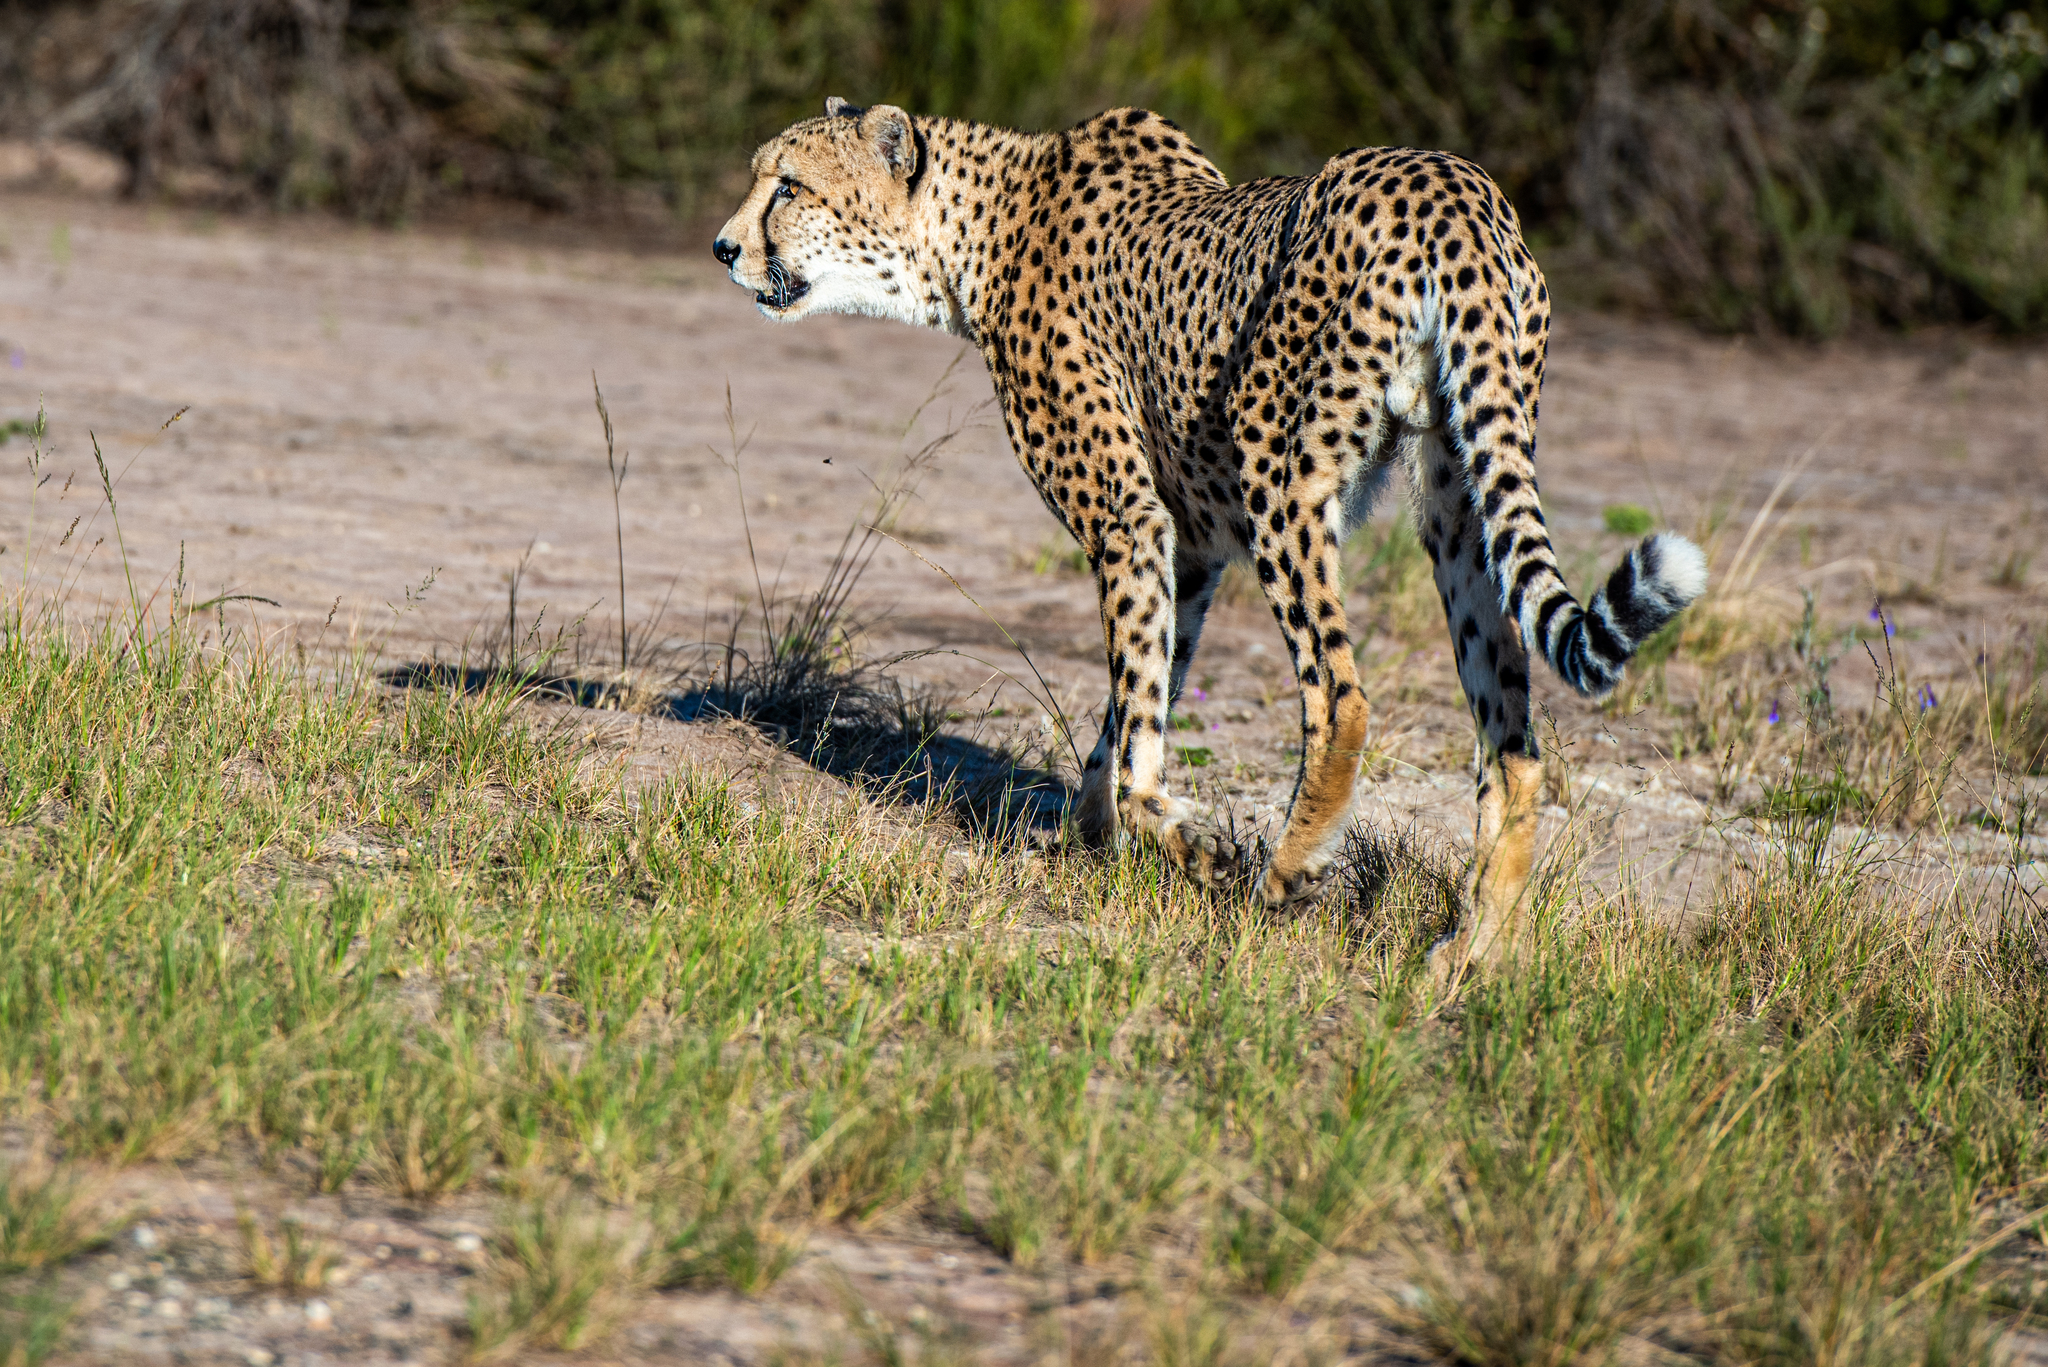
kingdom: Animalia
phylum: Chordata
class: Mammalia
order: Carnivora
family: Felidae
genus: Acinonyx
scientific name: Acinonyx jubatus
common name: Cheetah
